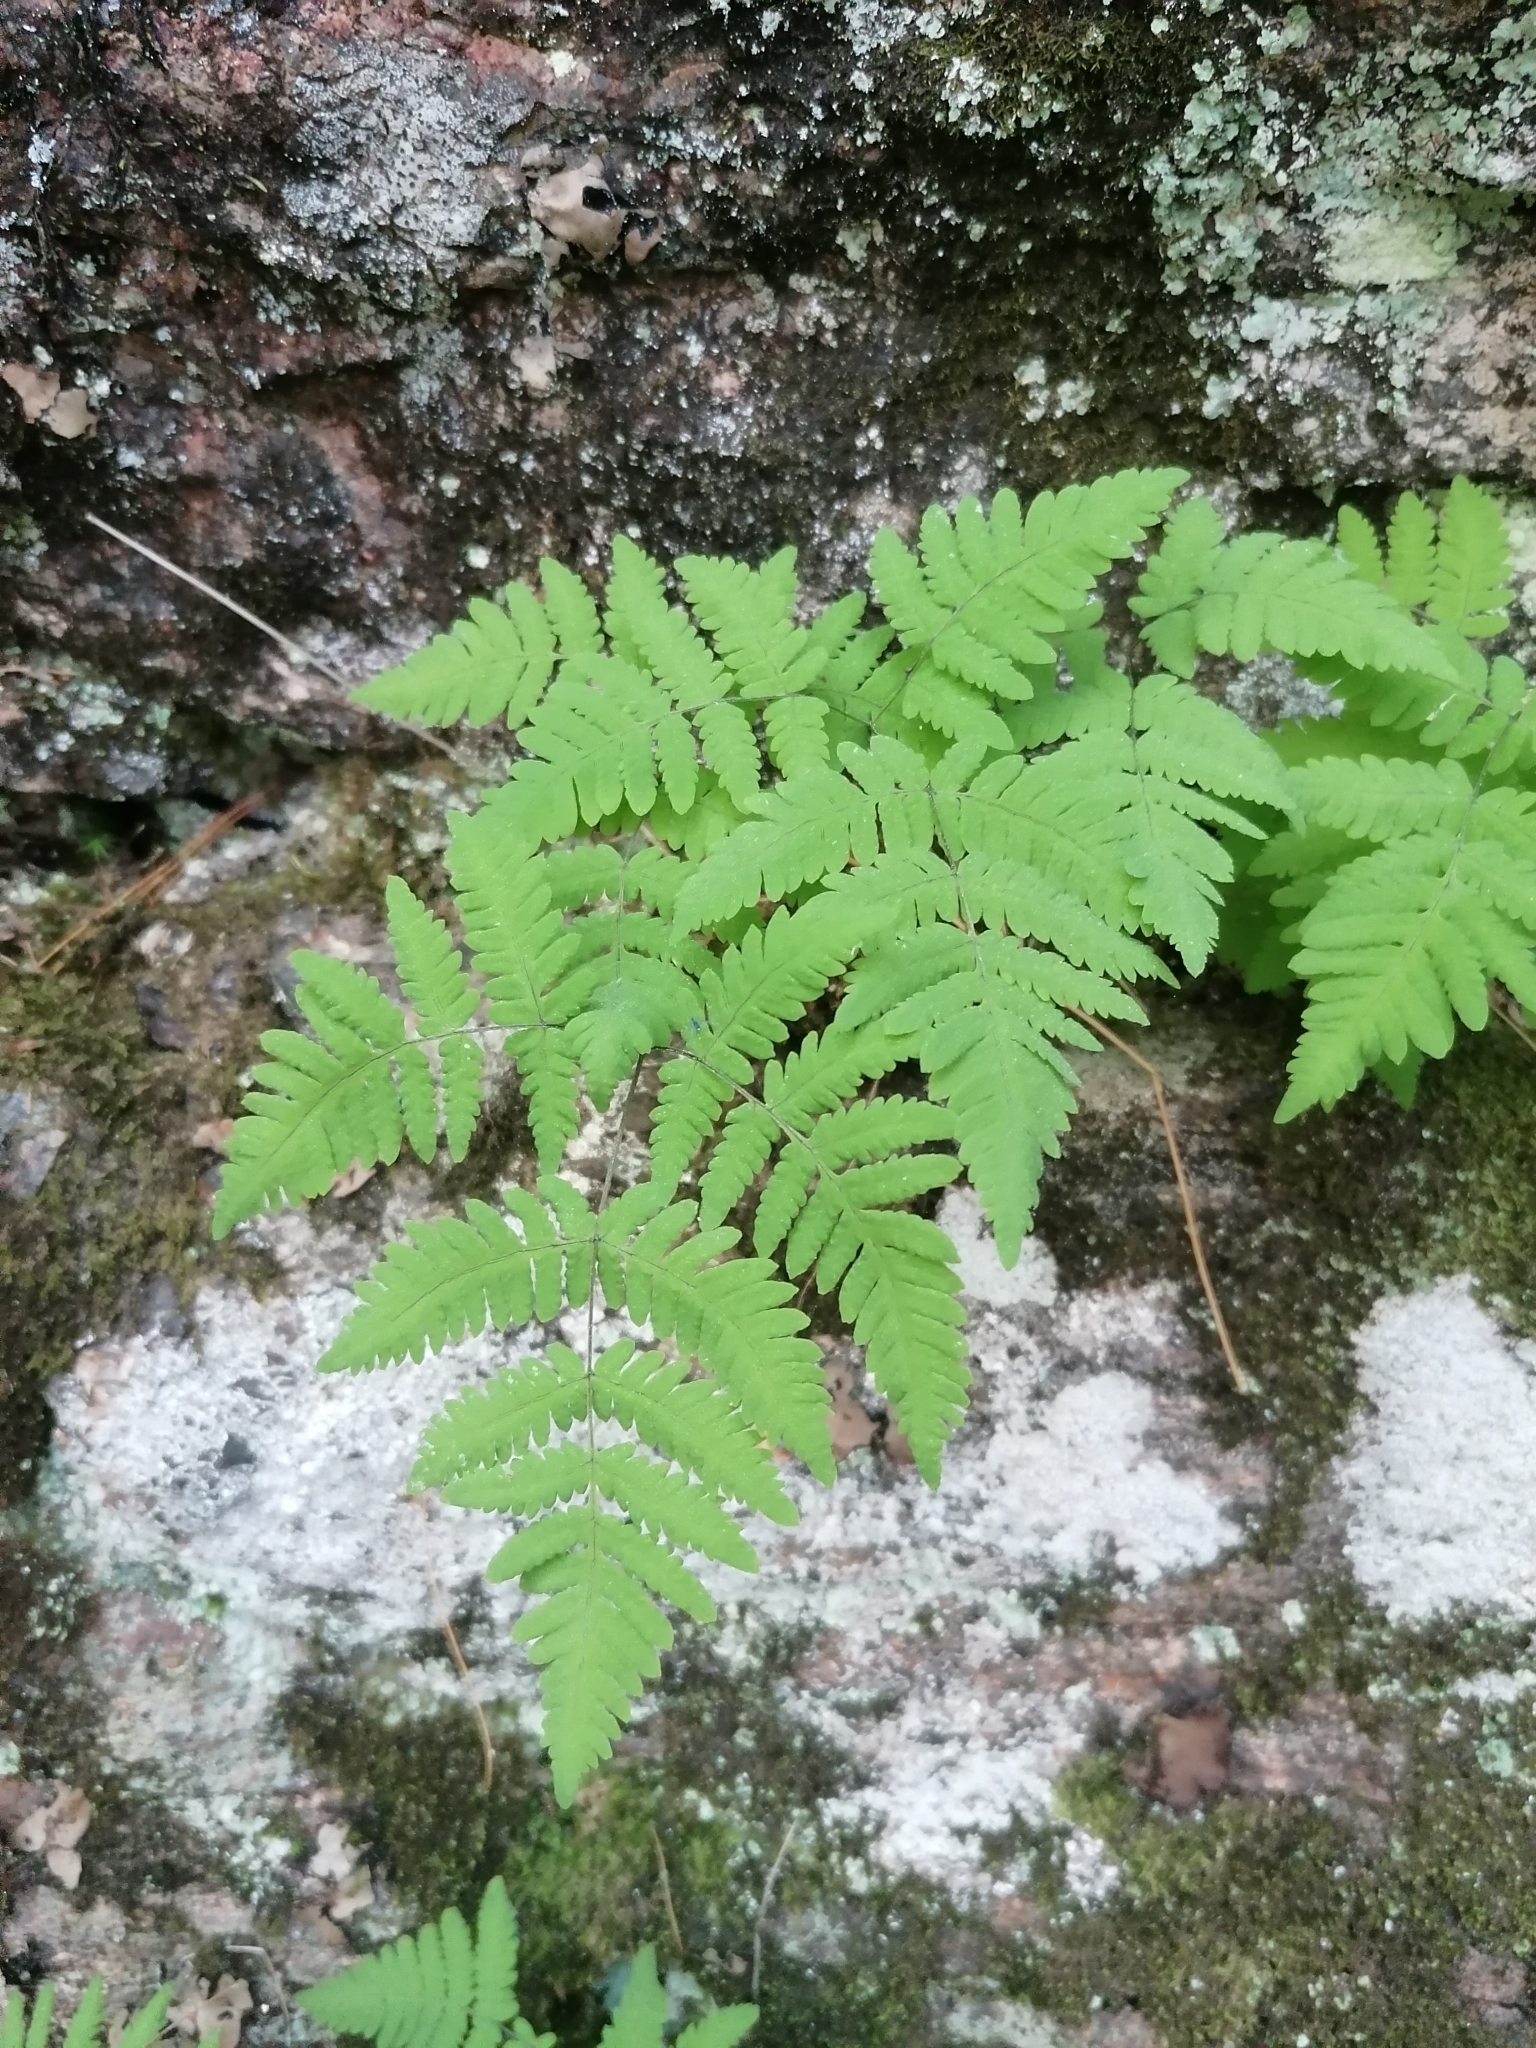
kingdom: Plantae
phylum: Tracheophyta
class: Polypodiopsida
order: Polypodiales
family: Cystopteridaceae
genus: Gymnocarpium
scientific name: Gymnocarpium dryopteris
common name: Oak fern
